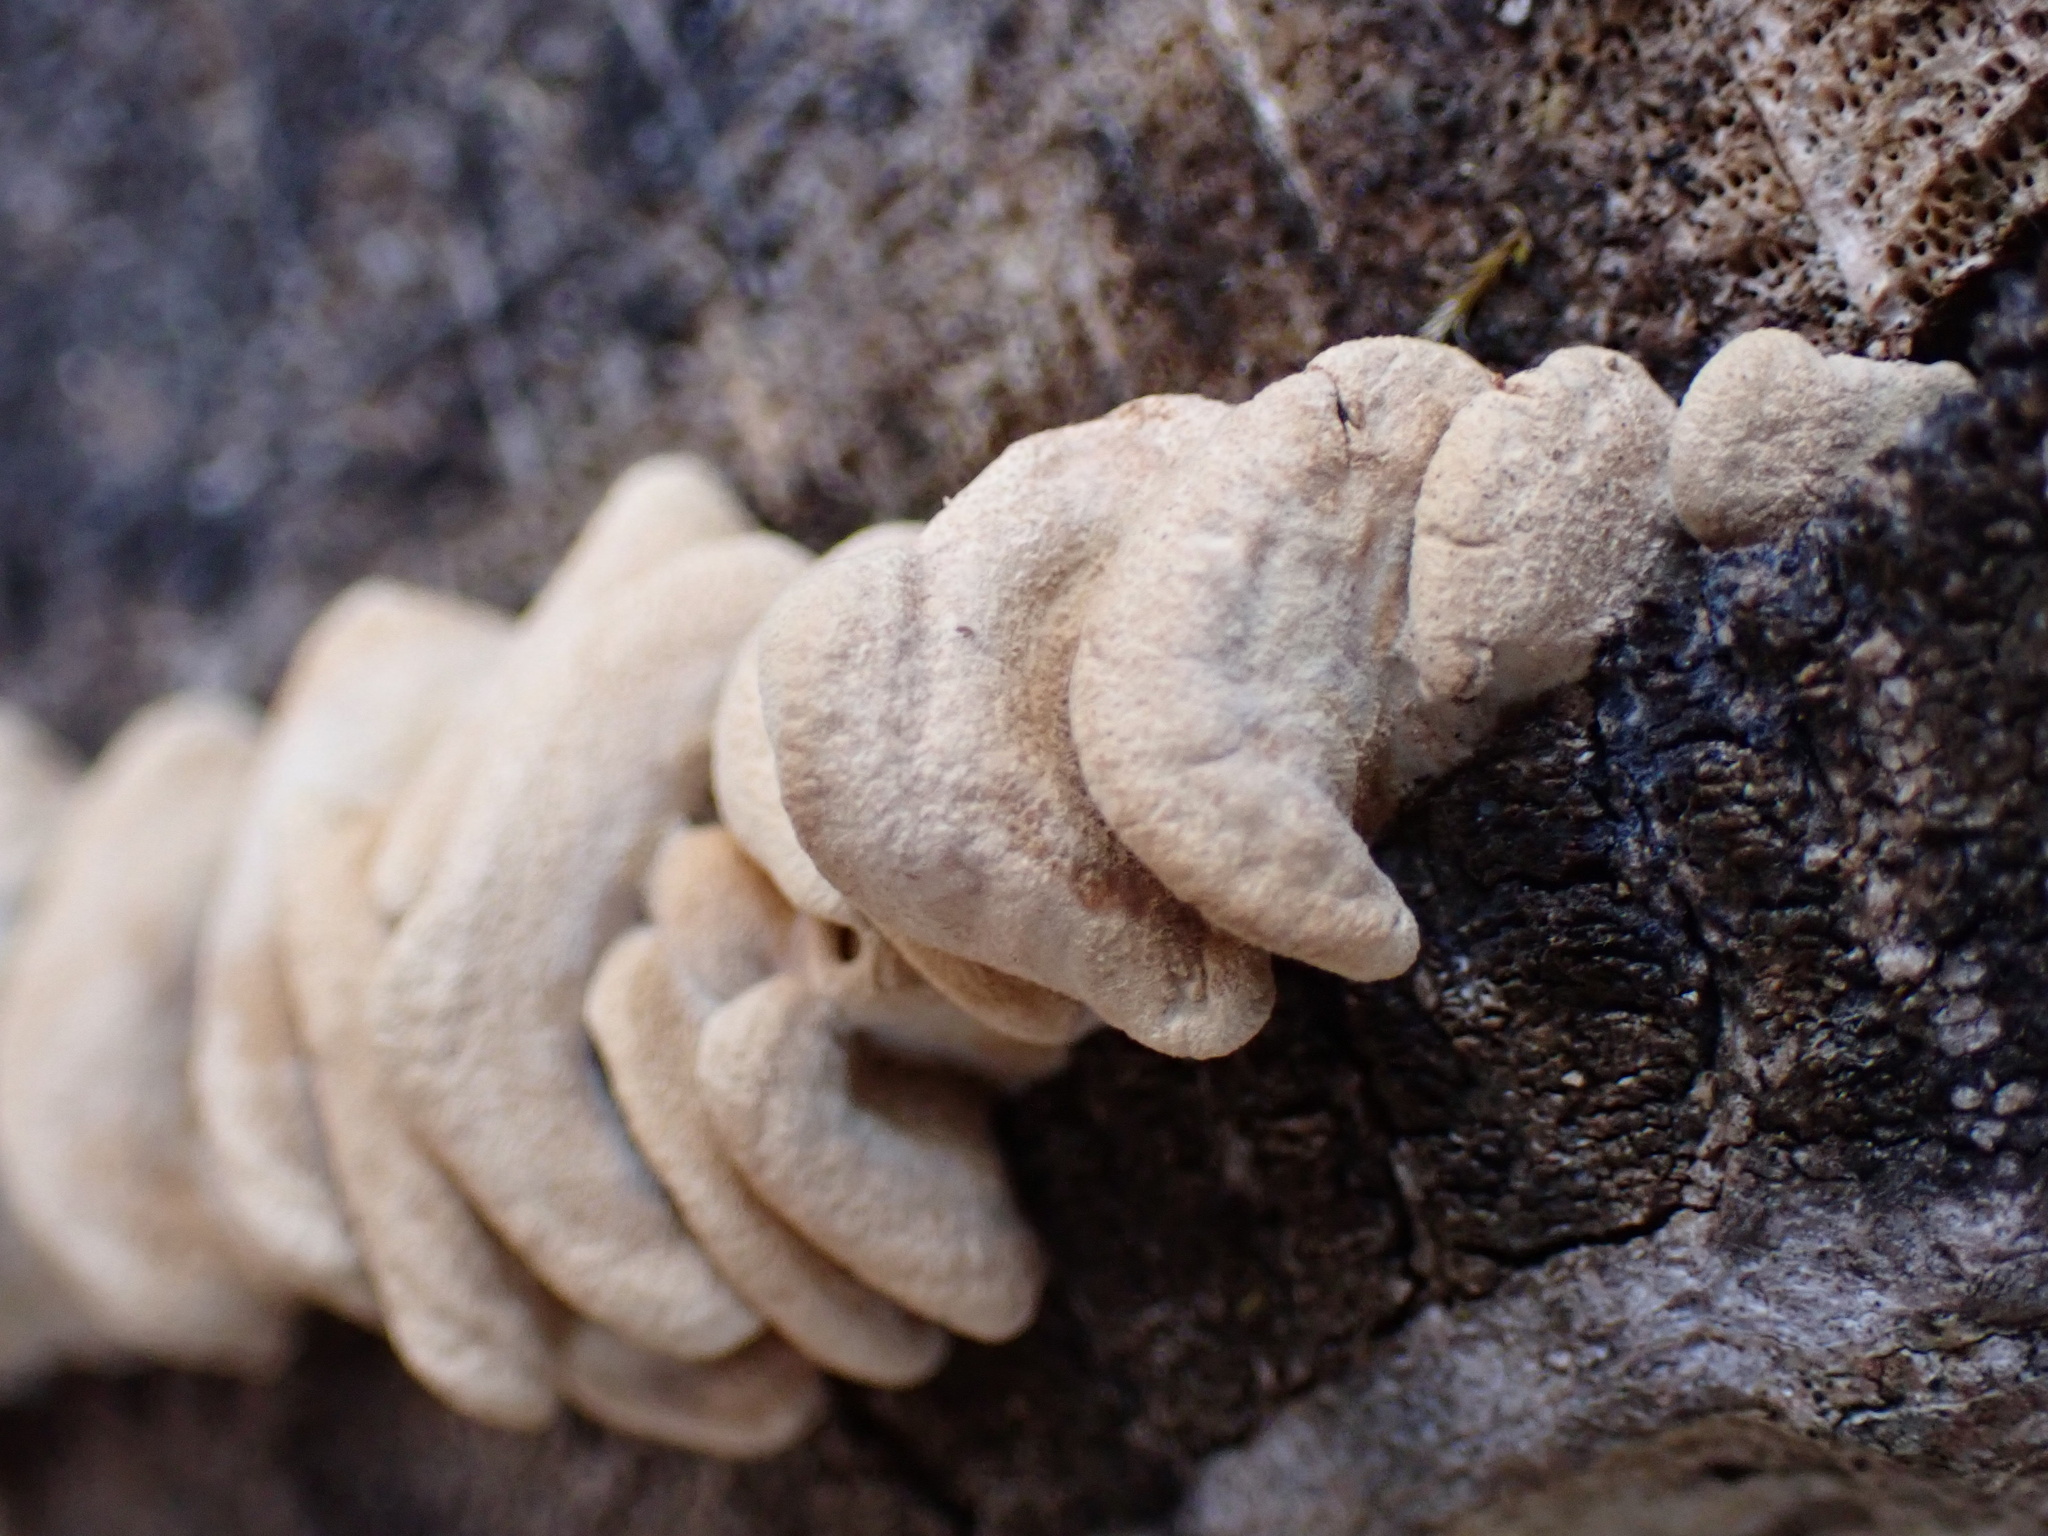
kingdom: Fungi
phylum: Basidiomycota
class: Agaricomycetes
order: Agaricales
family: Mycenaceae
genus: Panellus
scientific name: Panellus stipticus
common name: Bitter oysterling
